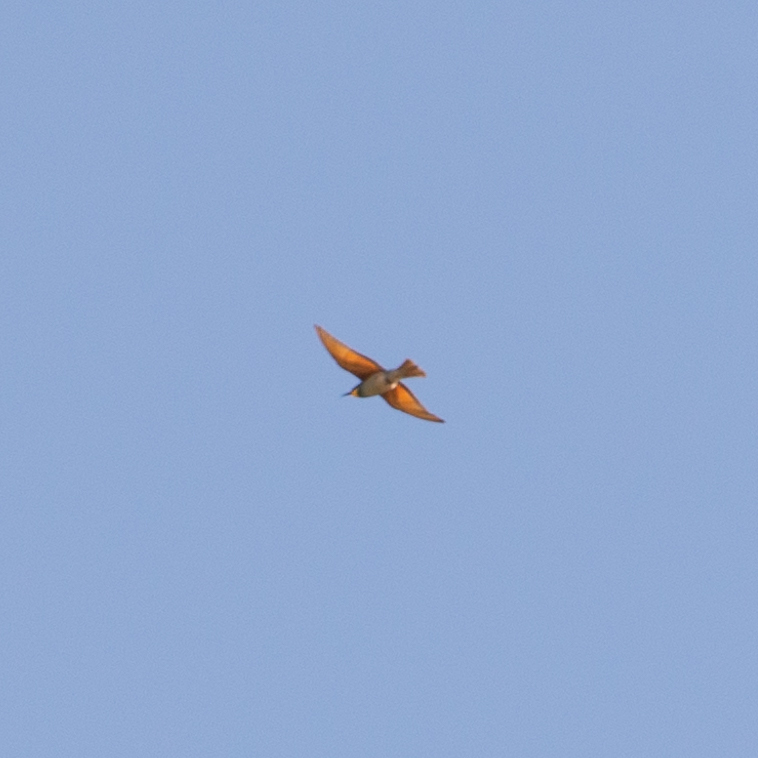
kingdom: Animalia
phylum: Chordata
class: Aves
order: Coraciiformes
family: Meropidae
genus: Merops
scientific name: Merops apiaster
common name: European bee-eater
